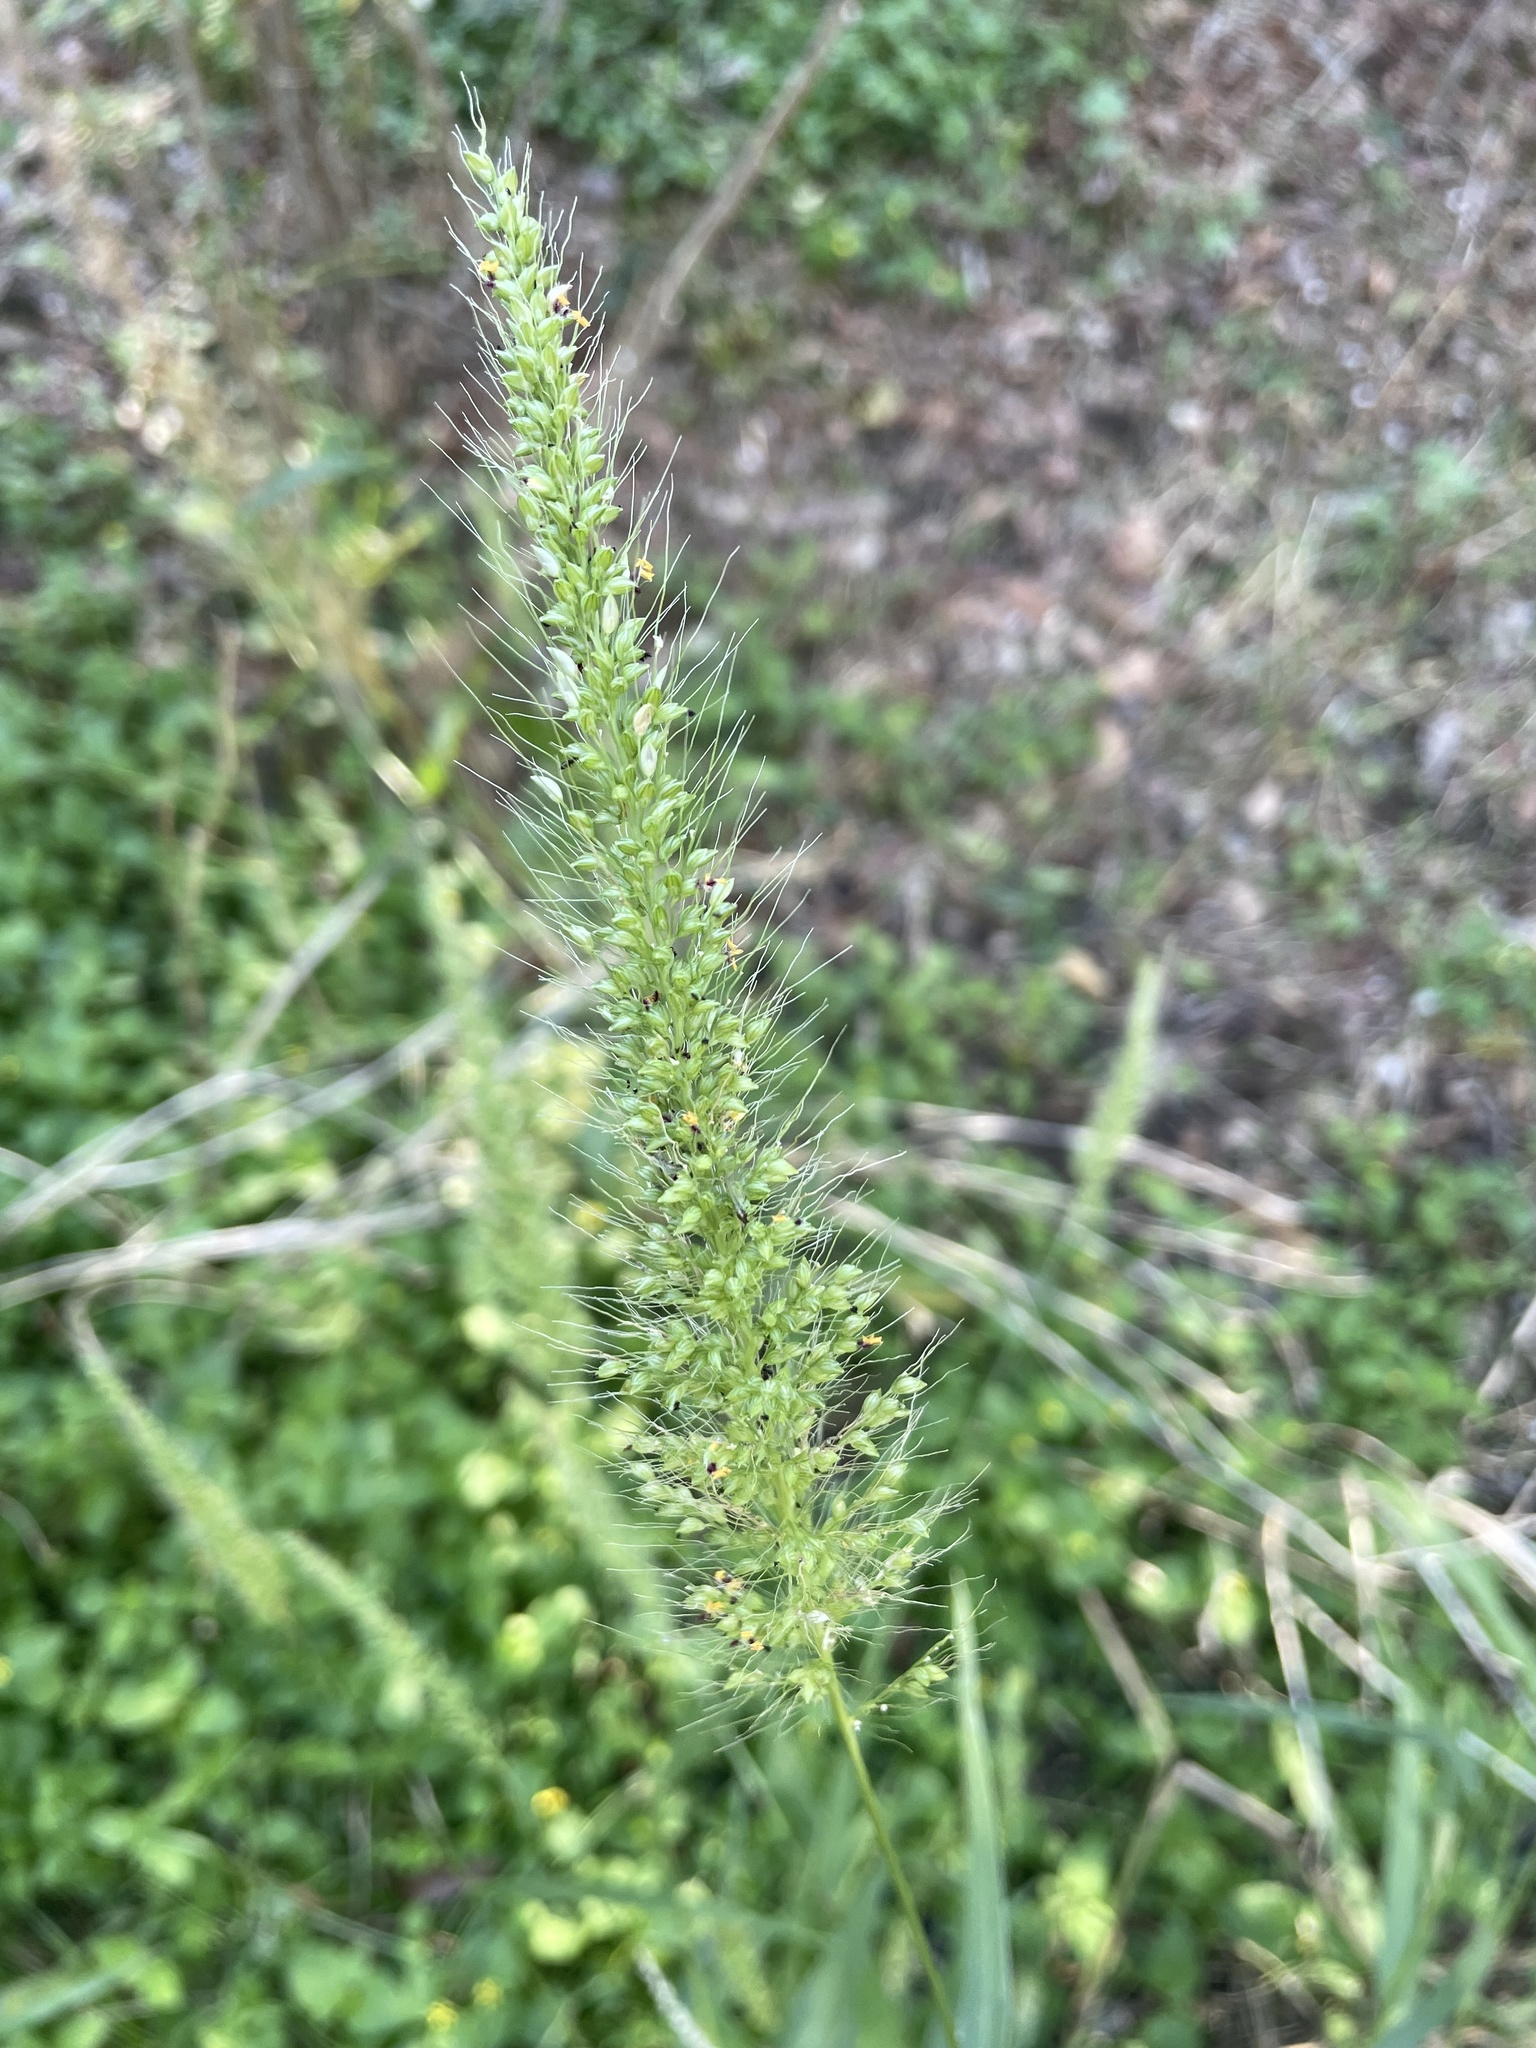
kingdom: Plantae
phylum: Tracheophyta
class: Liliopsida
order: Poales
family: Poaceae
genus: Setaria
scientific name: Setaria scheelei
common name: Southwestern bristle grass
